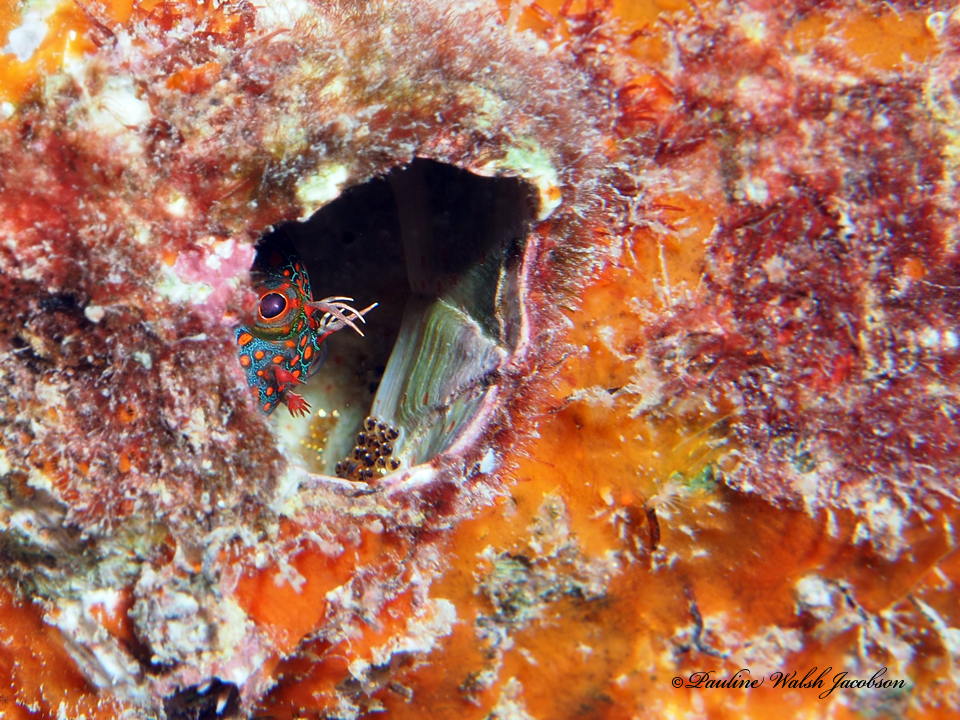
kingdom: Animalia
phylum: Chordata
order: Perciformes
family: Blenniidae
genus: Hypsoblennius
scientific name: Hypsoblennius invemar
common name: Tessellated blenny
